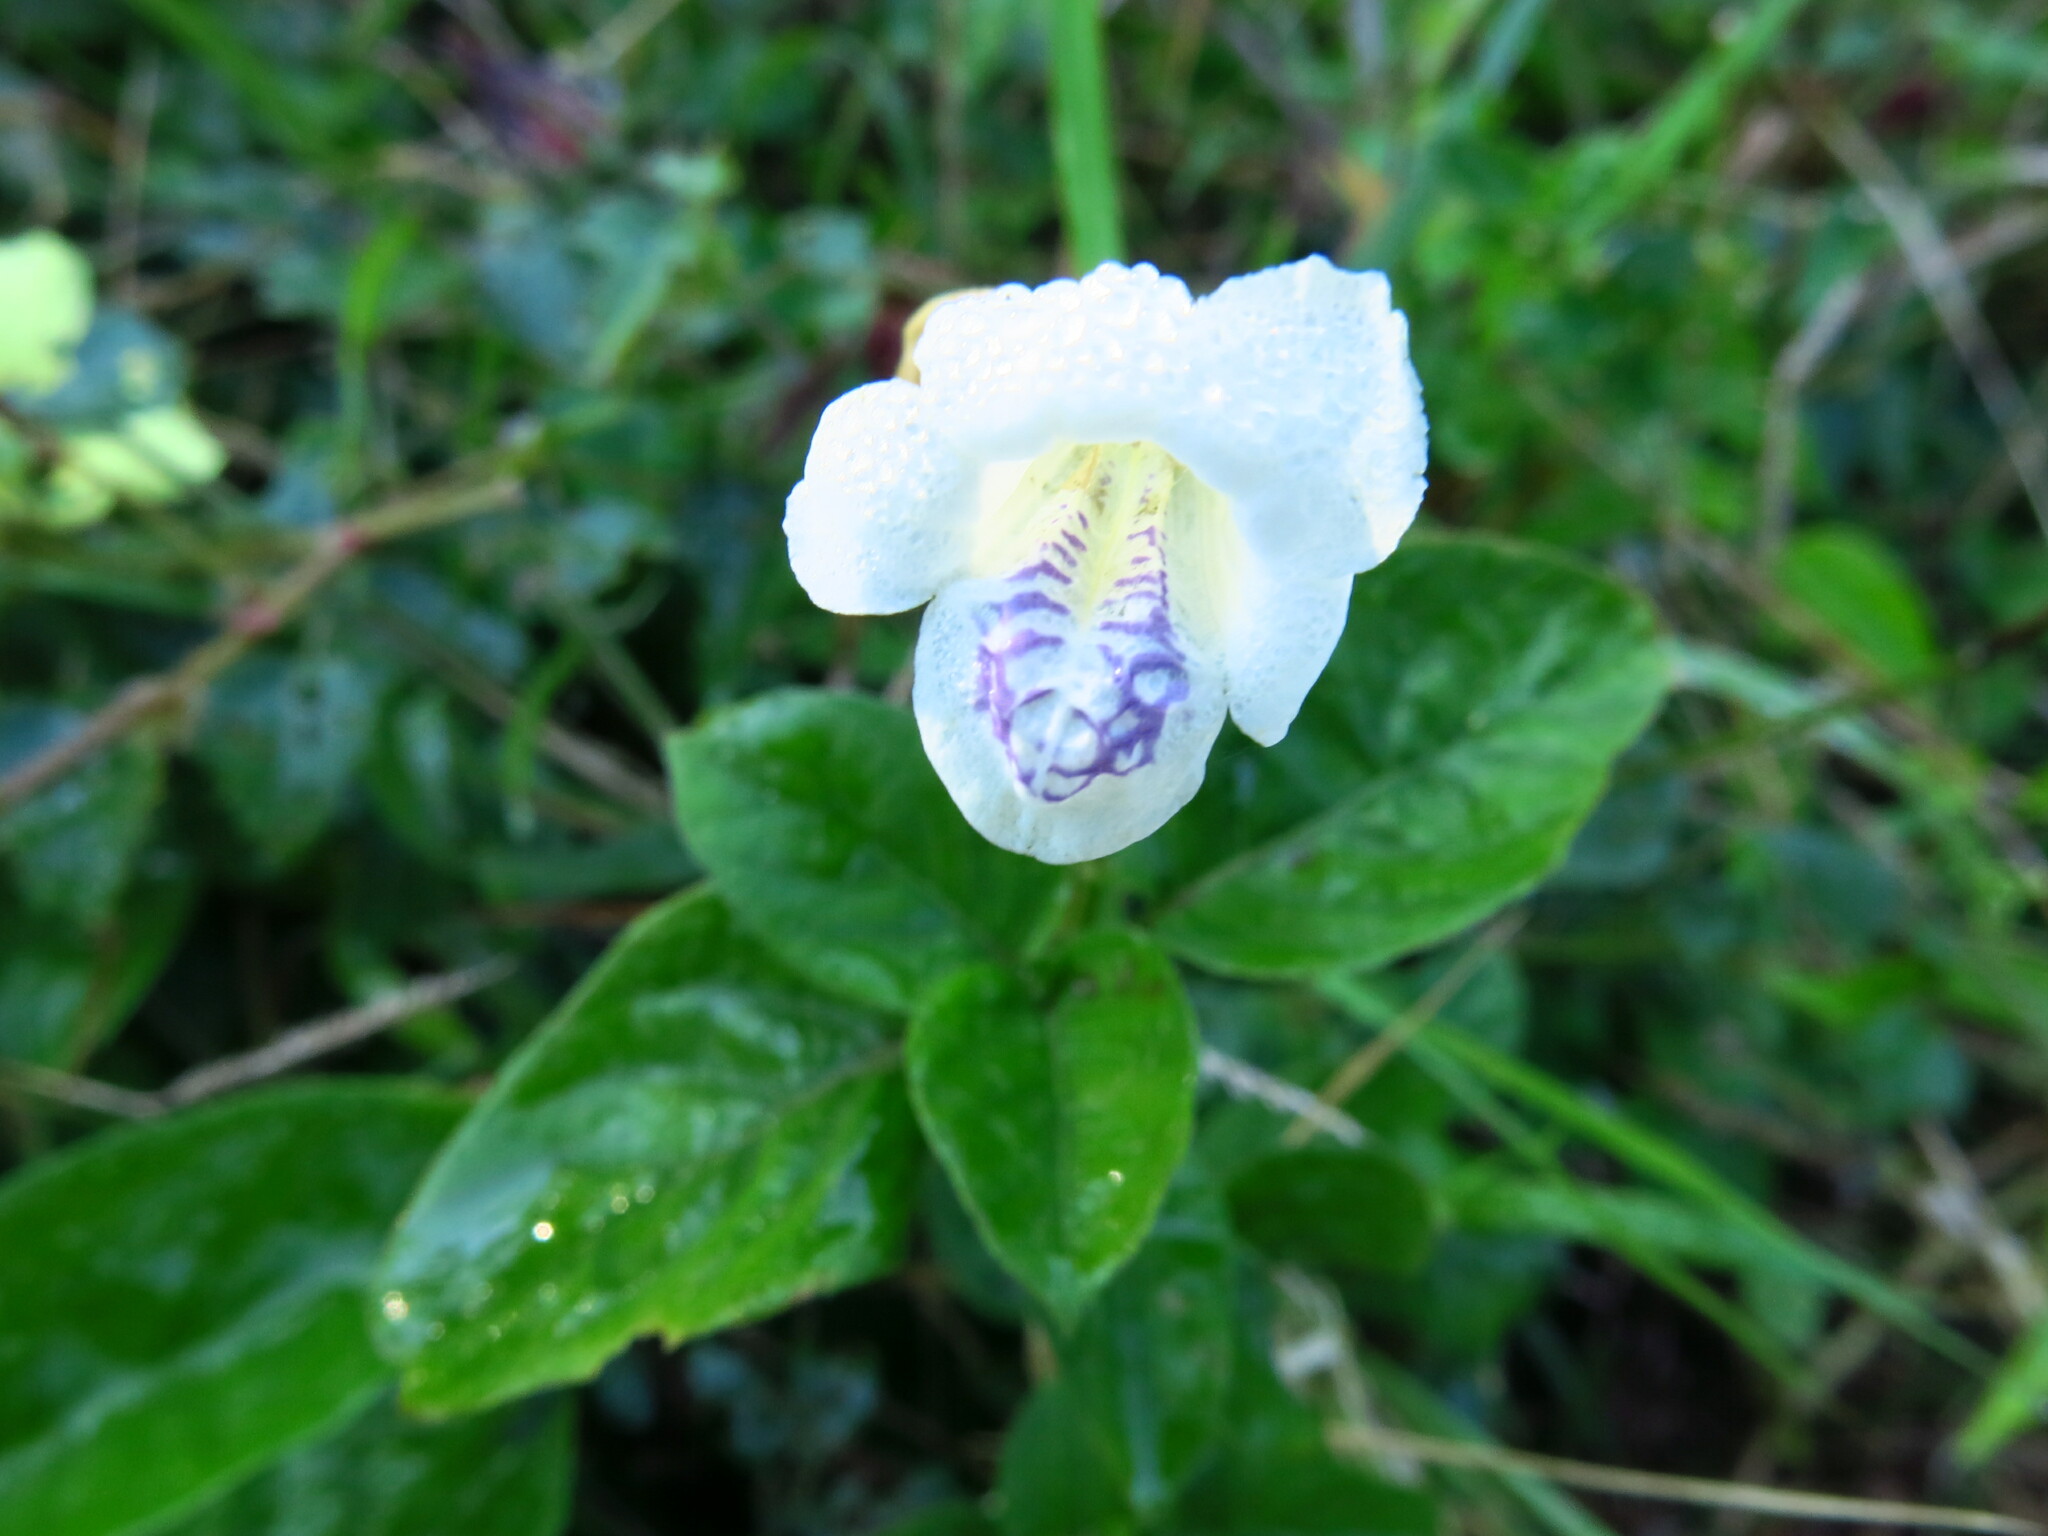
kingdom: Plantae
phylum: Tracheophyta
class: Magnoliopsida
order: Lamiales
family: Acanthaceae
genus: Asystasia
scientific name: Asystasia intrusa
